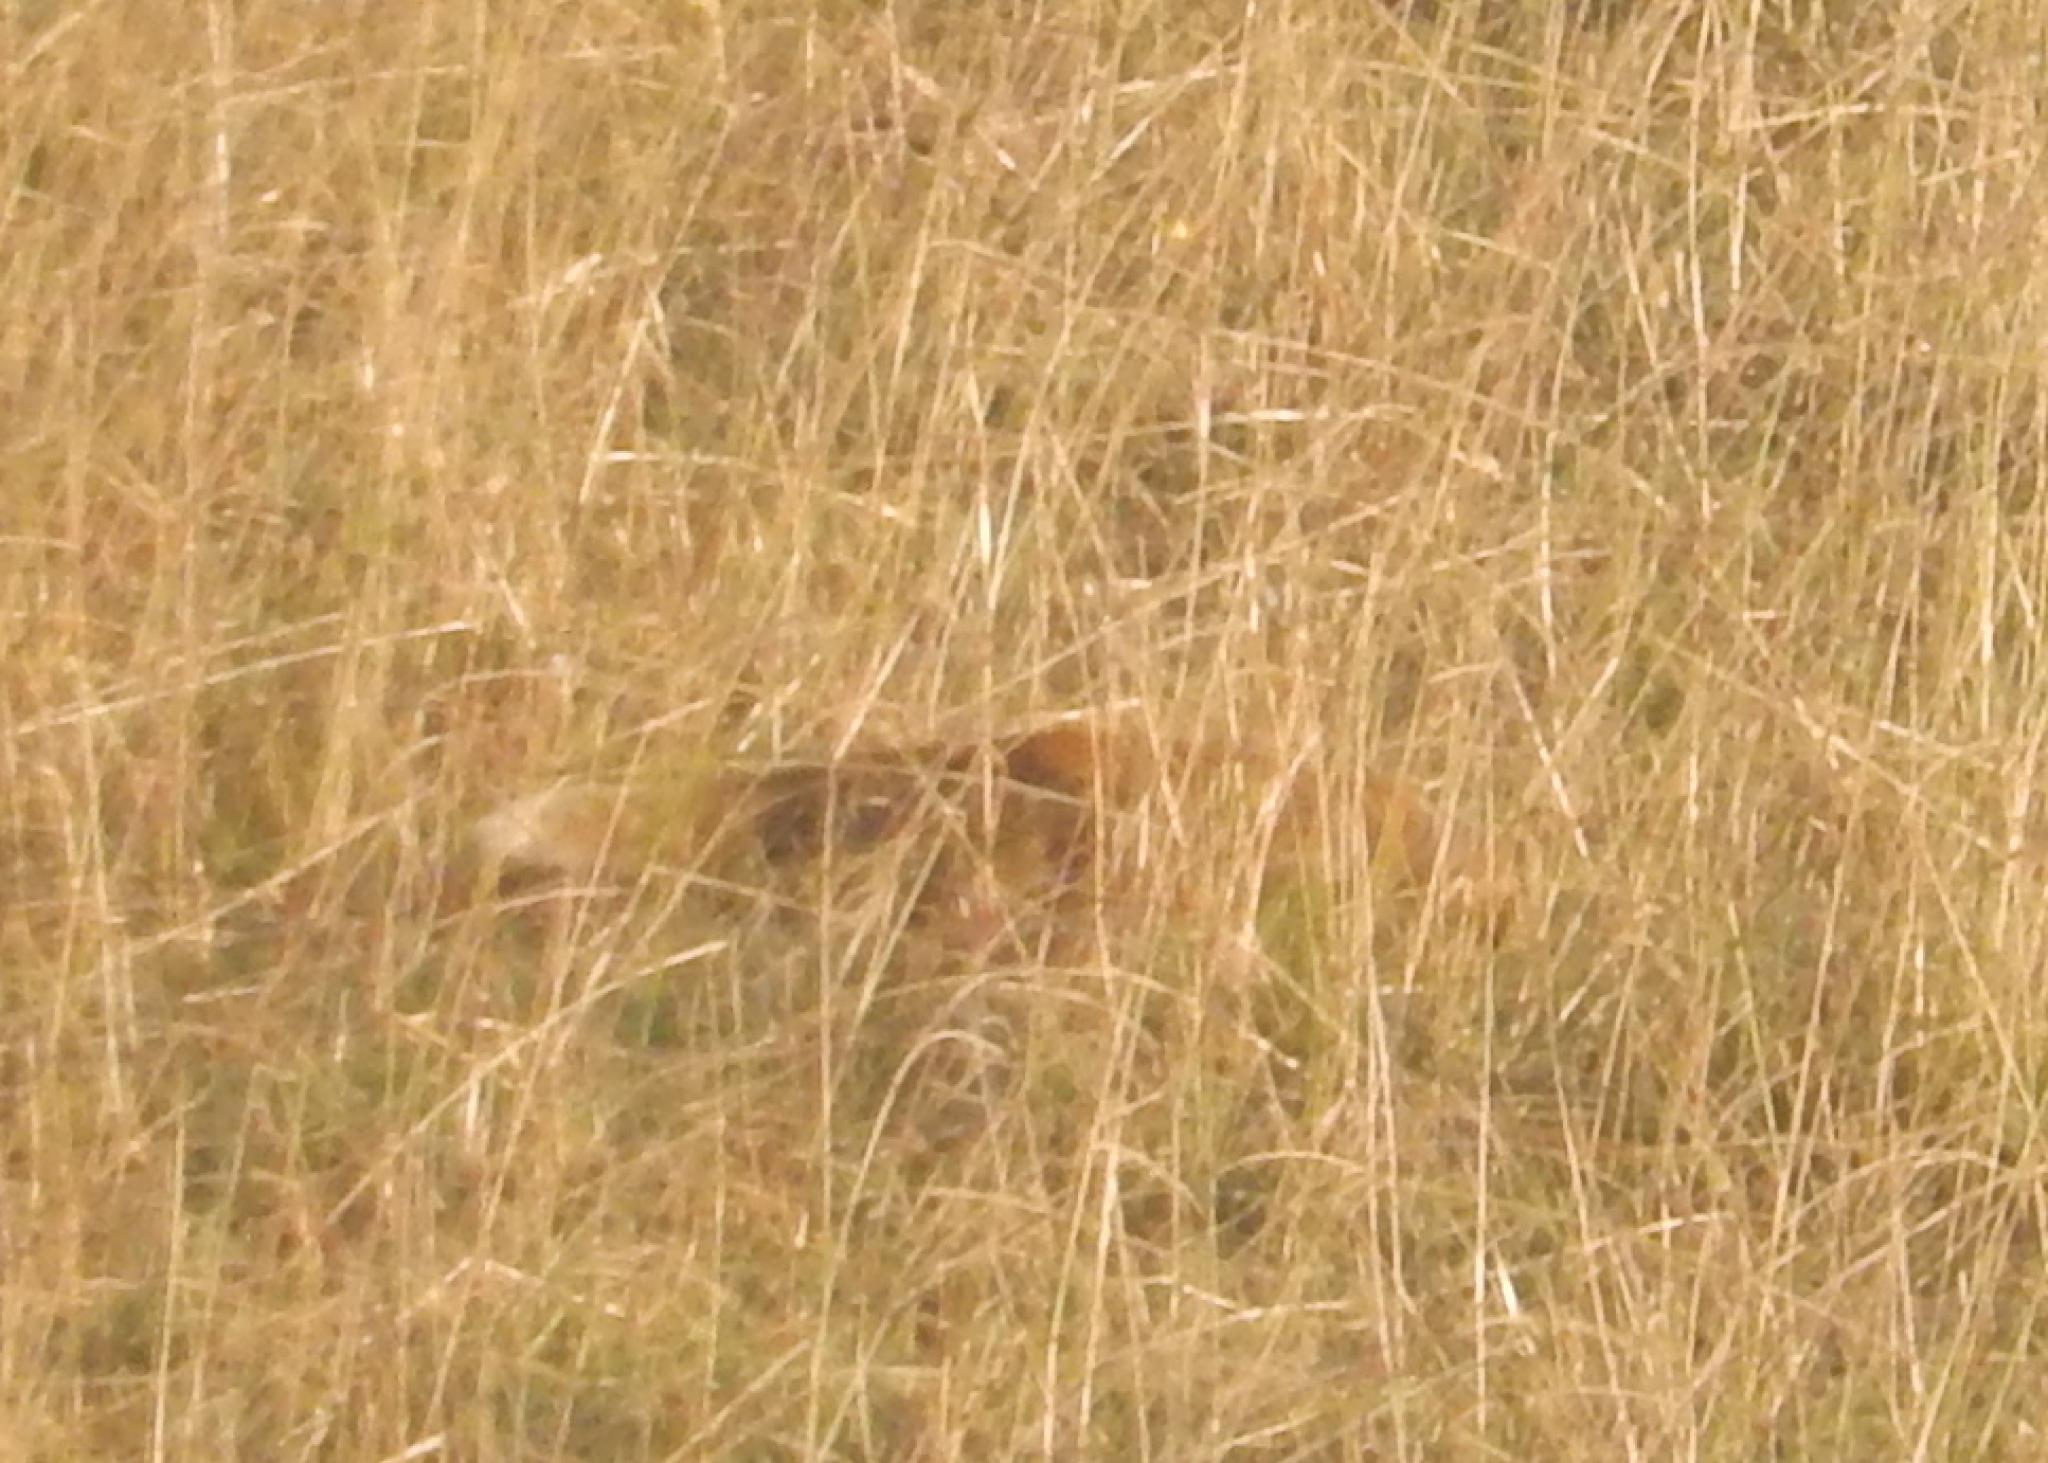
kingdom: Animalia
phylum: Chordata
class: Mammalia
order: Carnivora
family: Herpestidae
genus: Cynictis
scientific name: Cynictis penicillata
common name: Yellow mongoose
